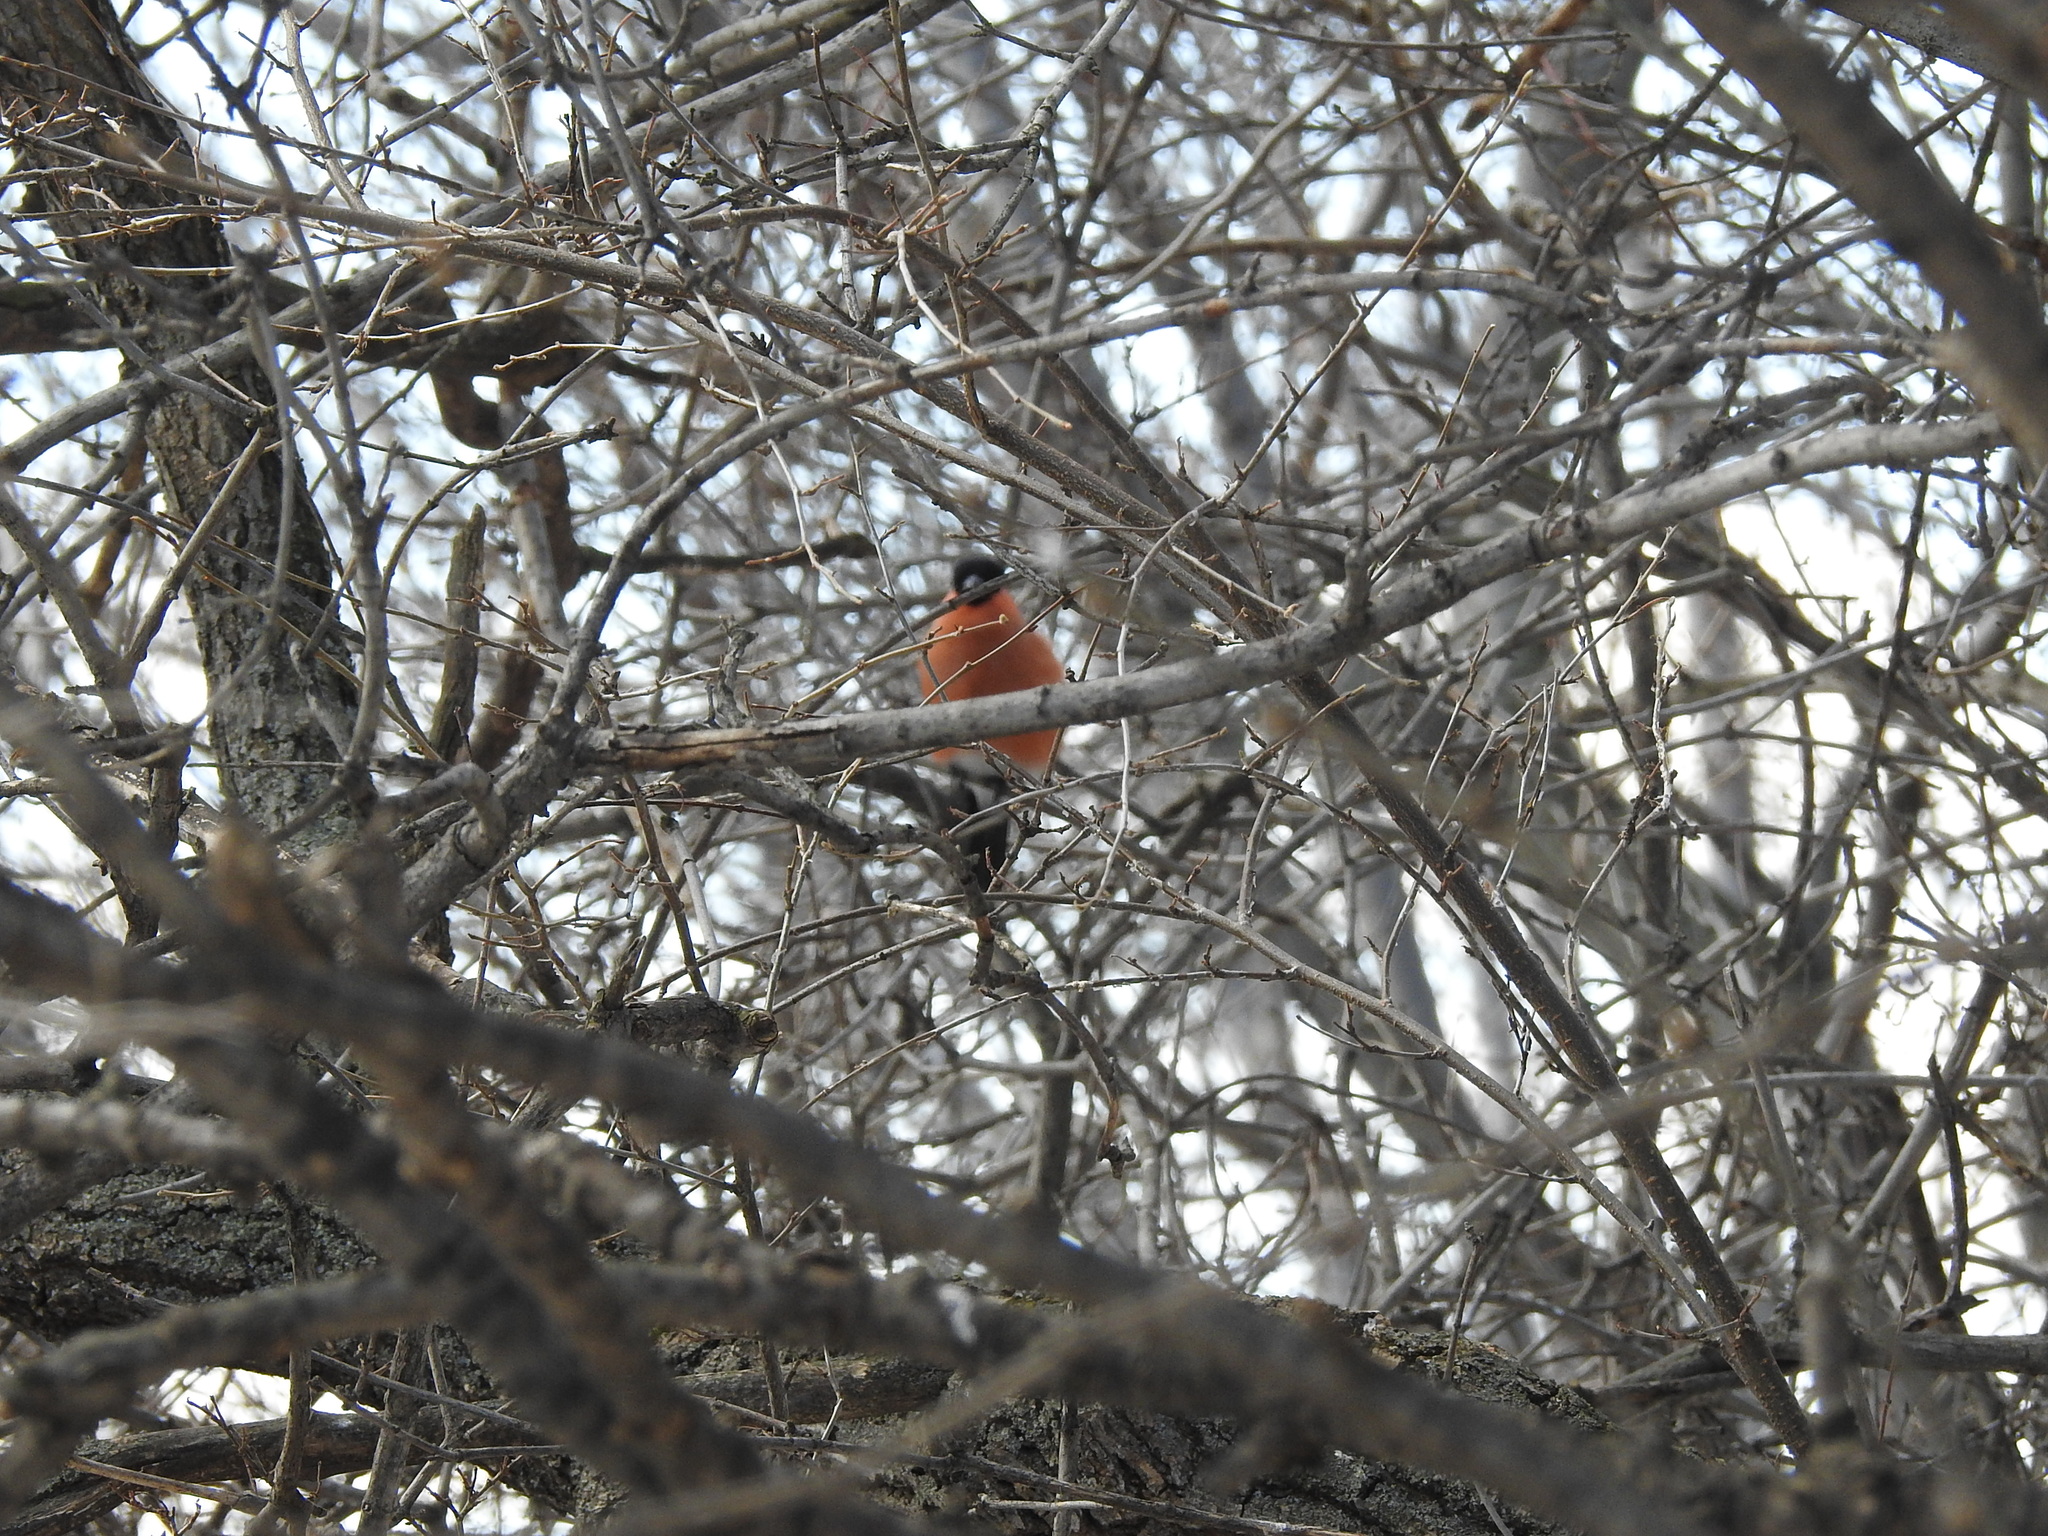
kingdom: Animalia
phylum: Chordata
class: Aves
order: Passeriformes
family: Fringillidae
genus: Pyrrhula
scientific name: Pyrrhula pyrrhula
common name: Eurasian bullfinch
